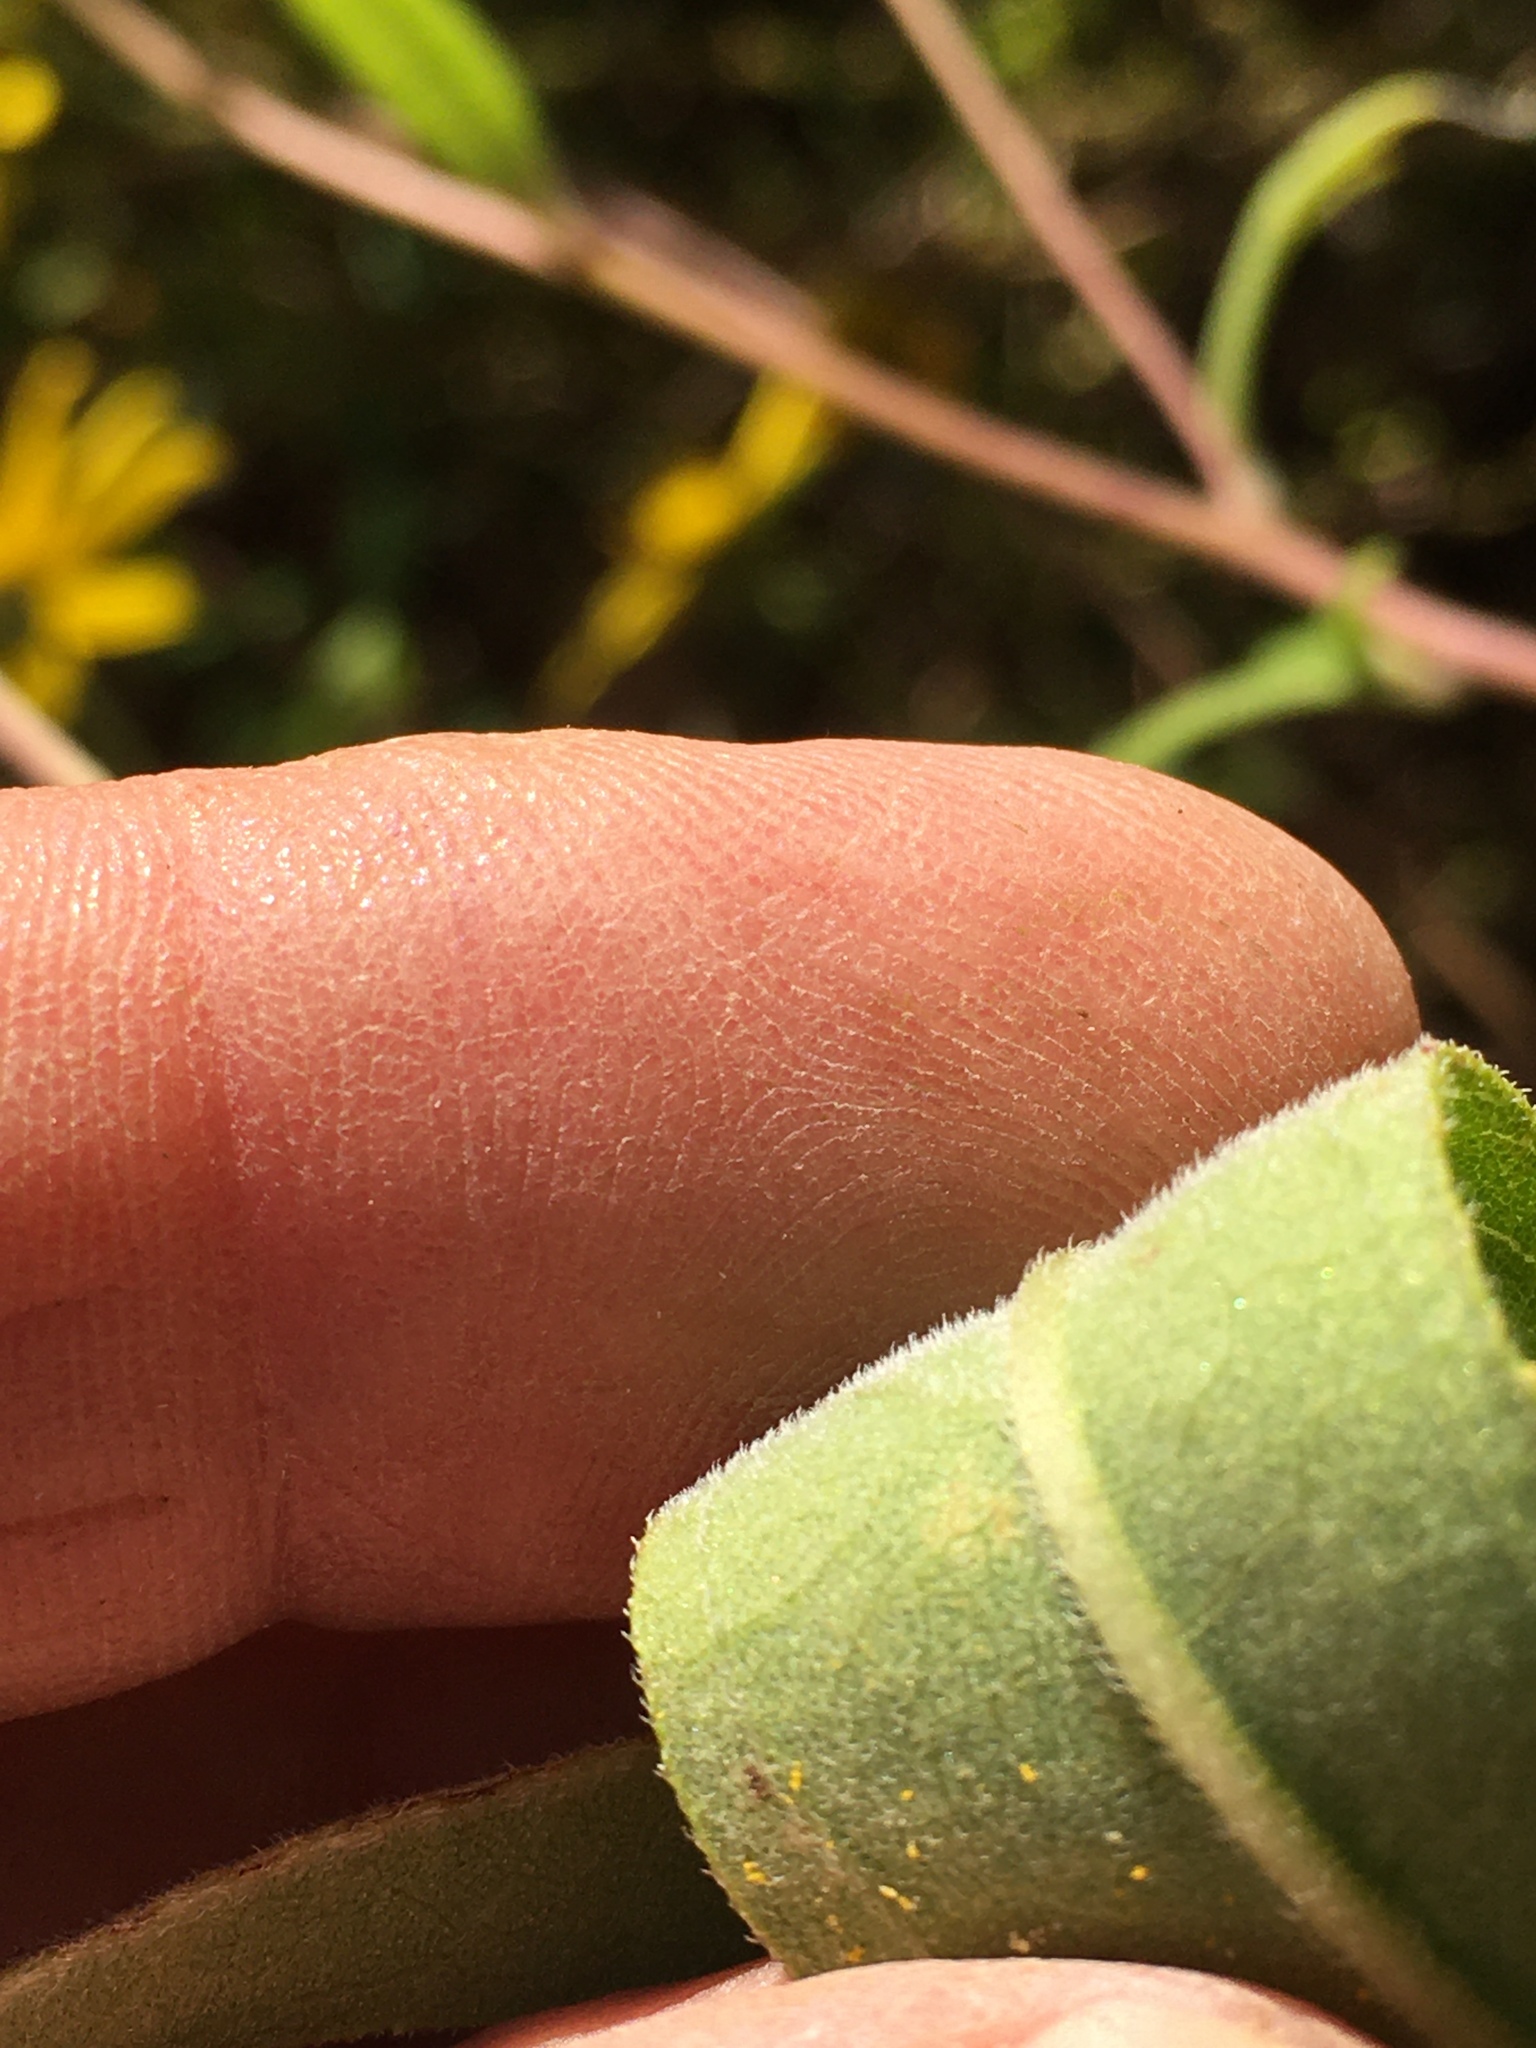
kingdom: Plantae
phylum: Tracheophyta
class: Magnoliopsida
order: Asterales
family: Asteraceae
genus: Helianthus
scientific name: Helianthus schweinitzii
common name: Schweinitz's sunflower
